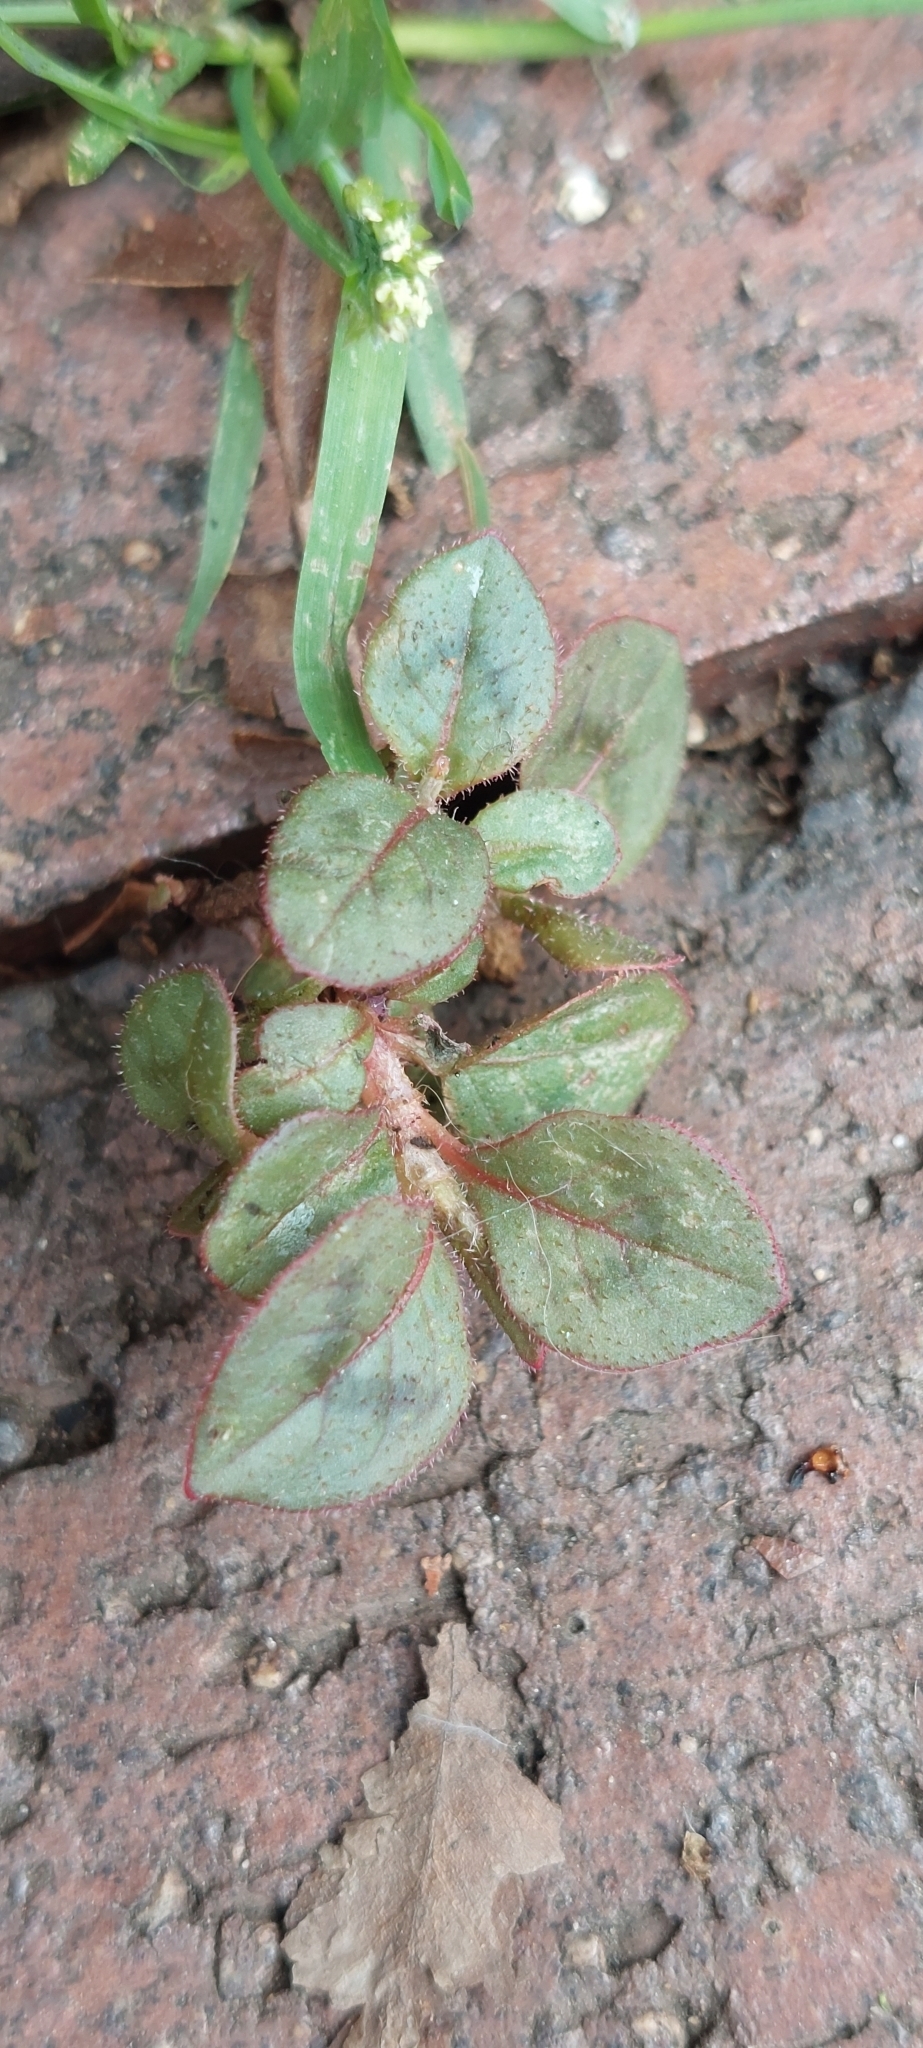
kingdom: Plantae
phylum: Tracheophyta
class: Magnoliopsida
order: Caryophyllales
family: Polygonaceae
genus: Persicaria
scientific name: Persicaria capitata
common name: Pinkhead smartweed
